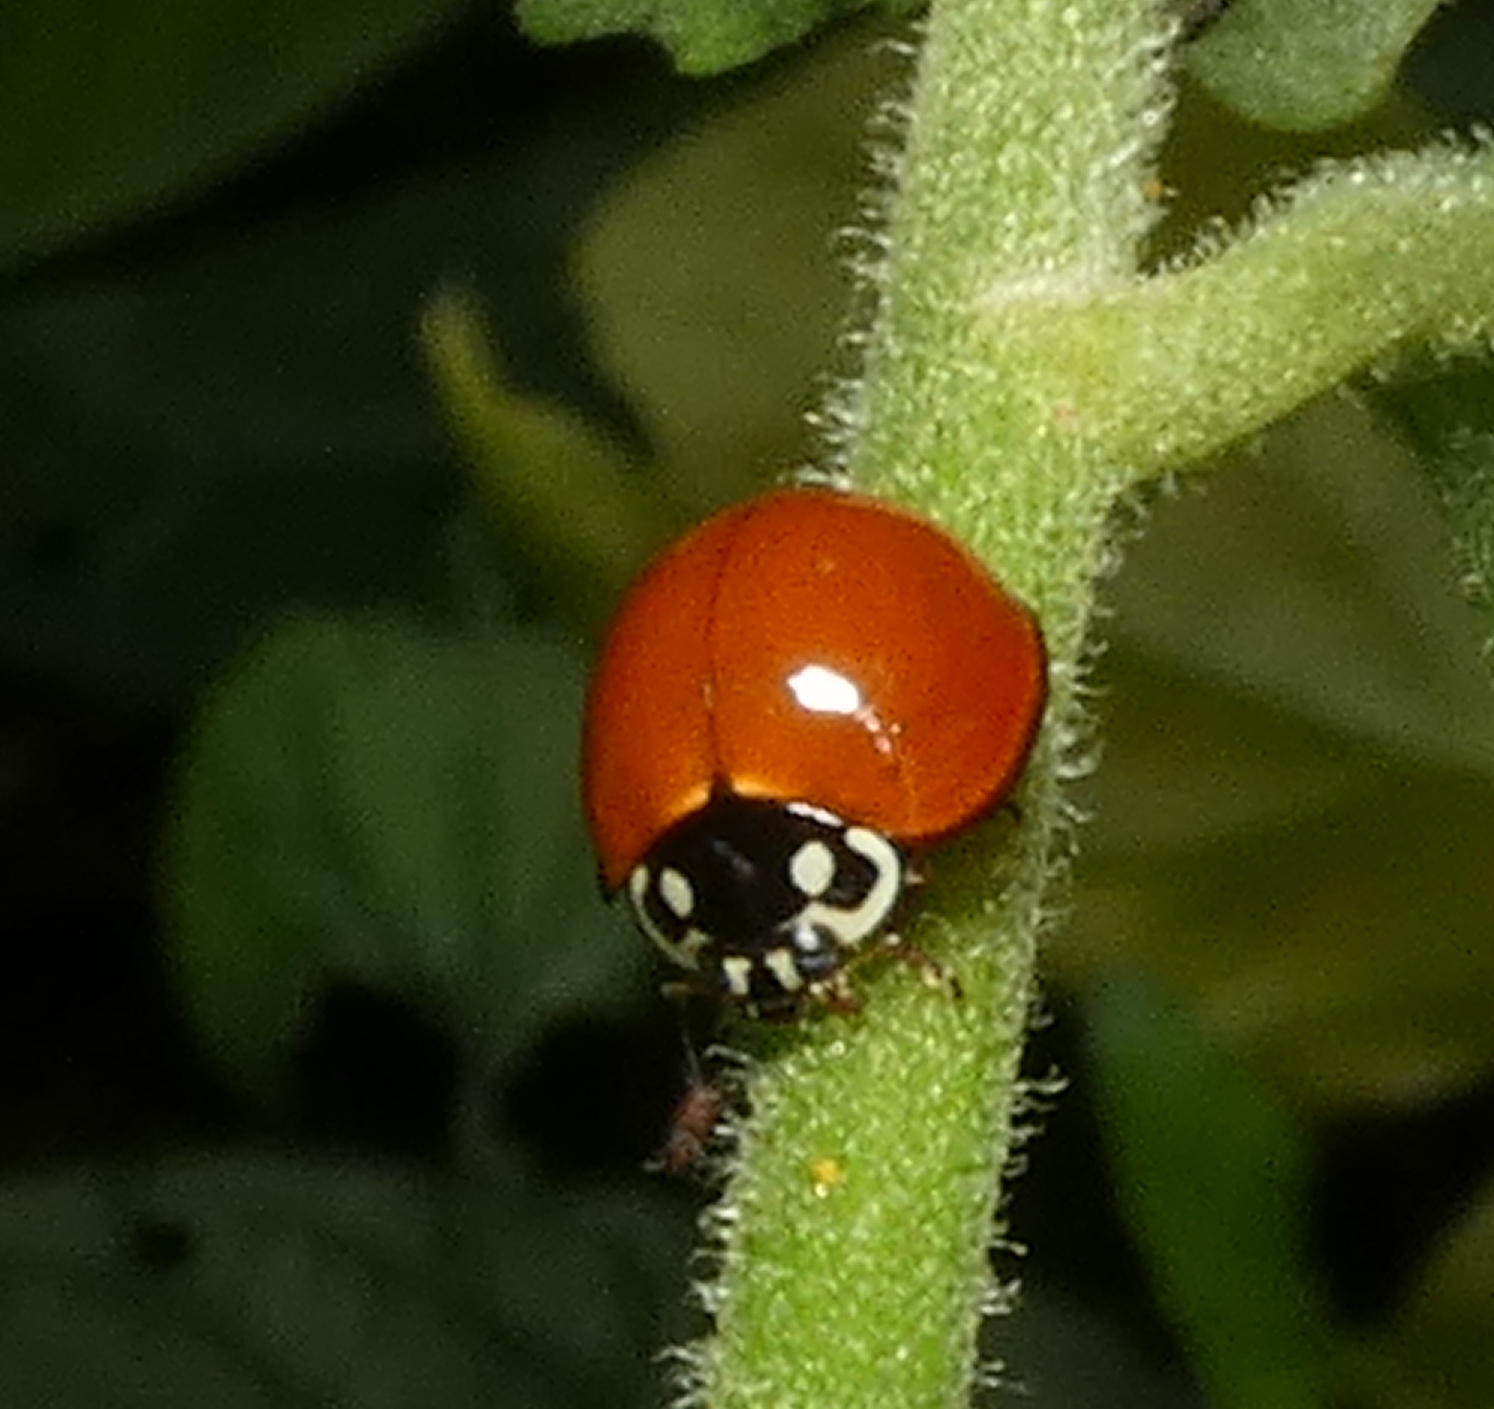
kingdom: Animalia
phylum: Arthropoda
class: Insecta
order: Coleoptera
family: Coccinellidae
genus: Cycloneda
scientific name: Cycloneda sanguinea
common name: Ladybird beetle
